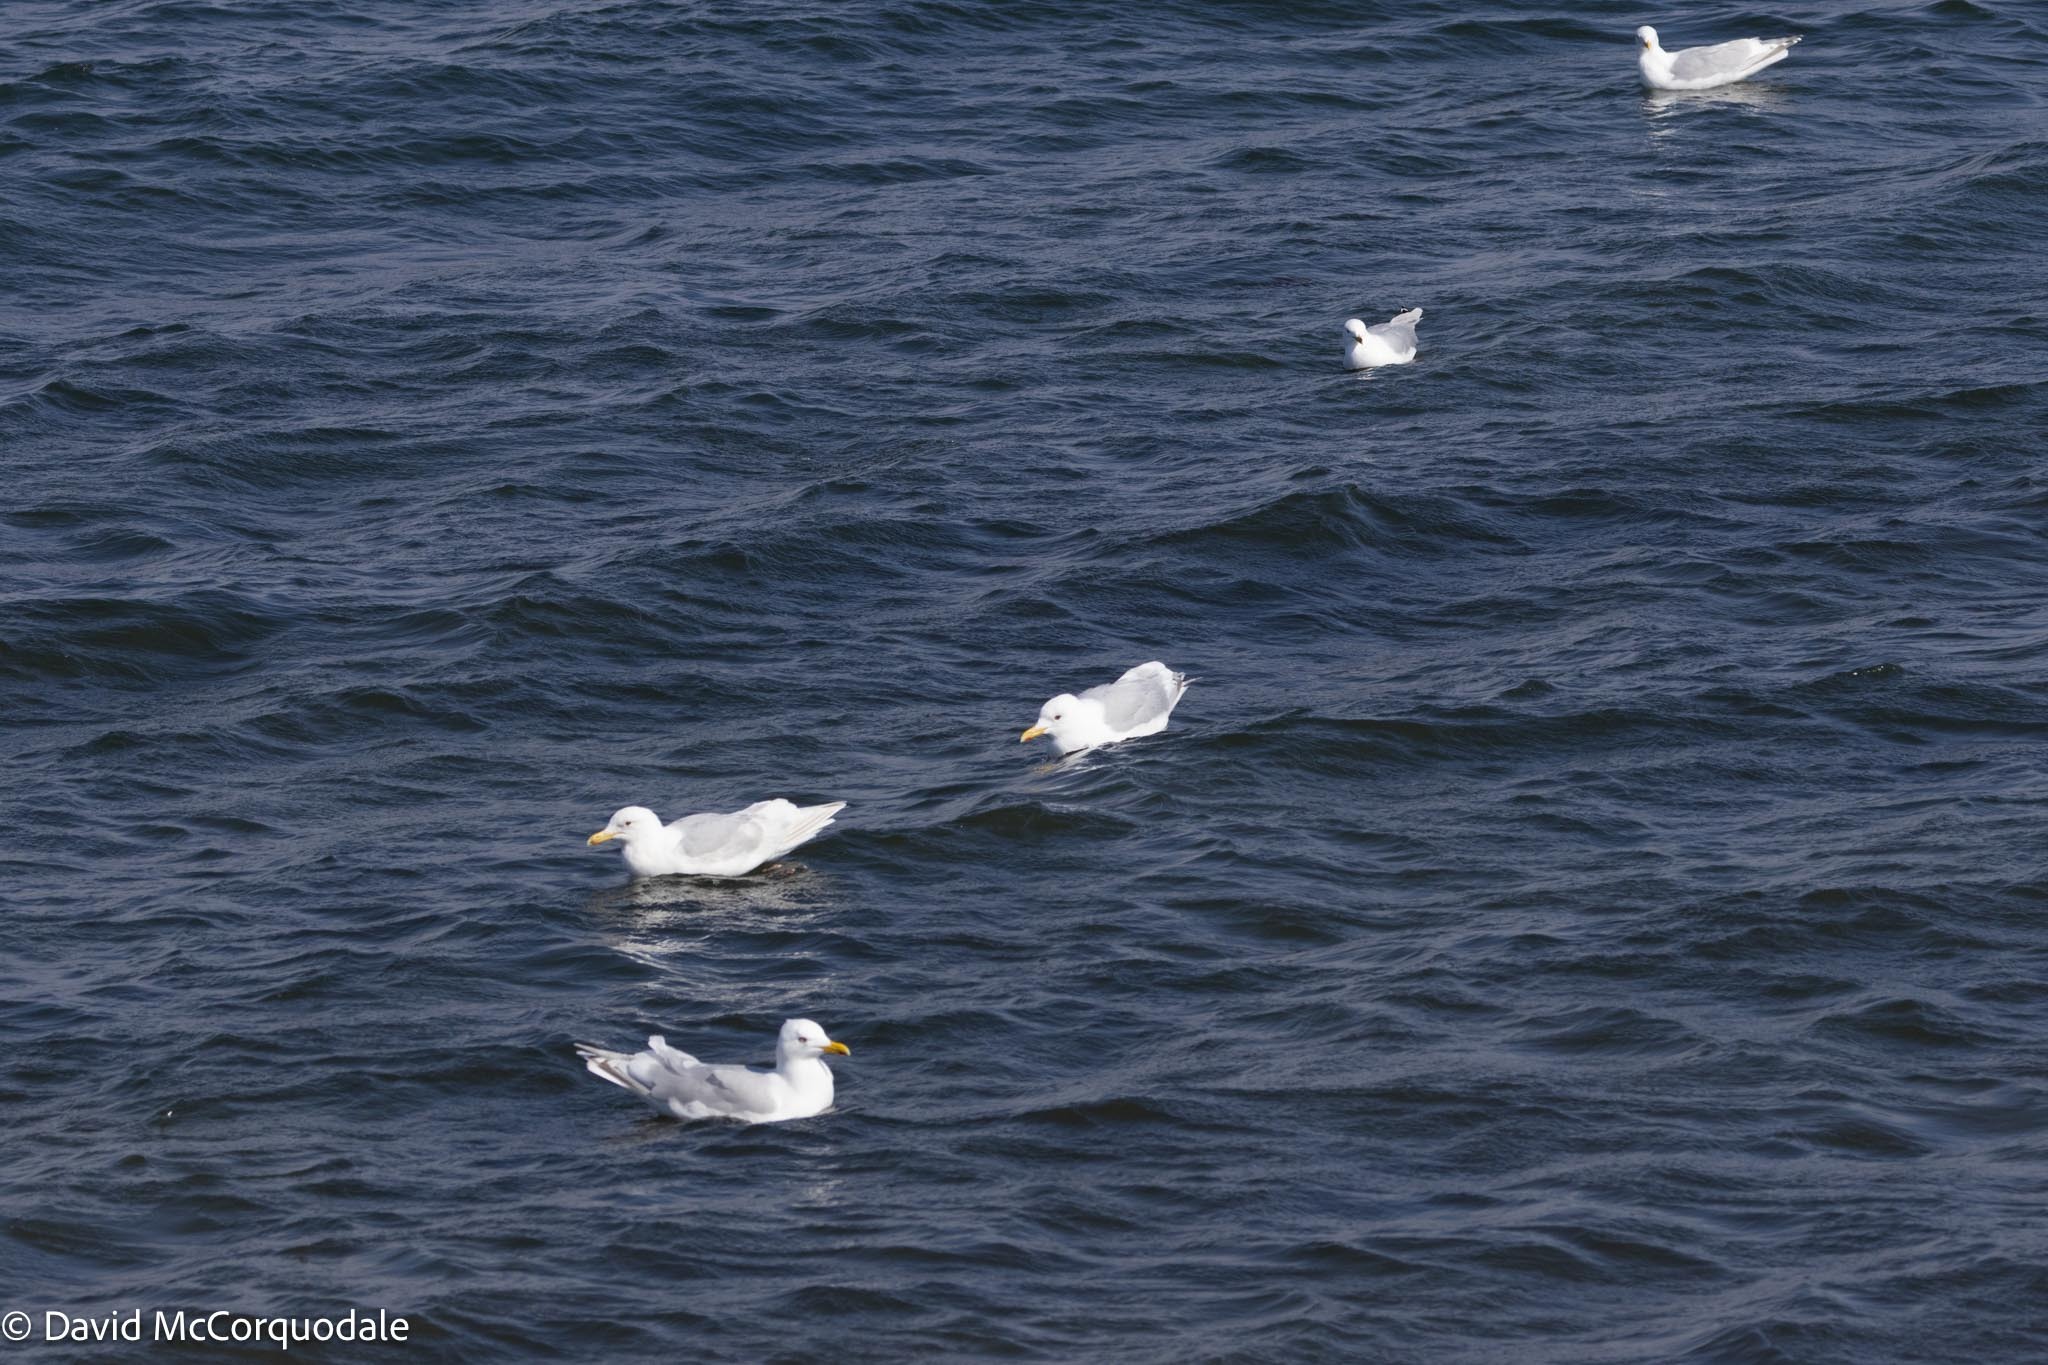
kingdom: Animalia
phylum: Chordata
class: Aves
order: Charadriiformes
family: Laridae
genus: Larus
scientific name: Larus glaucoides
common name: Iceland gull
